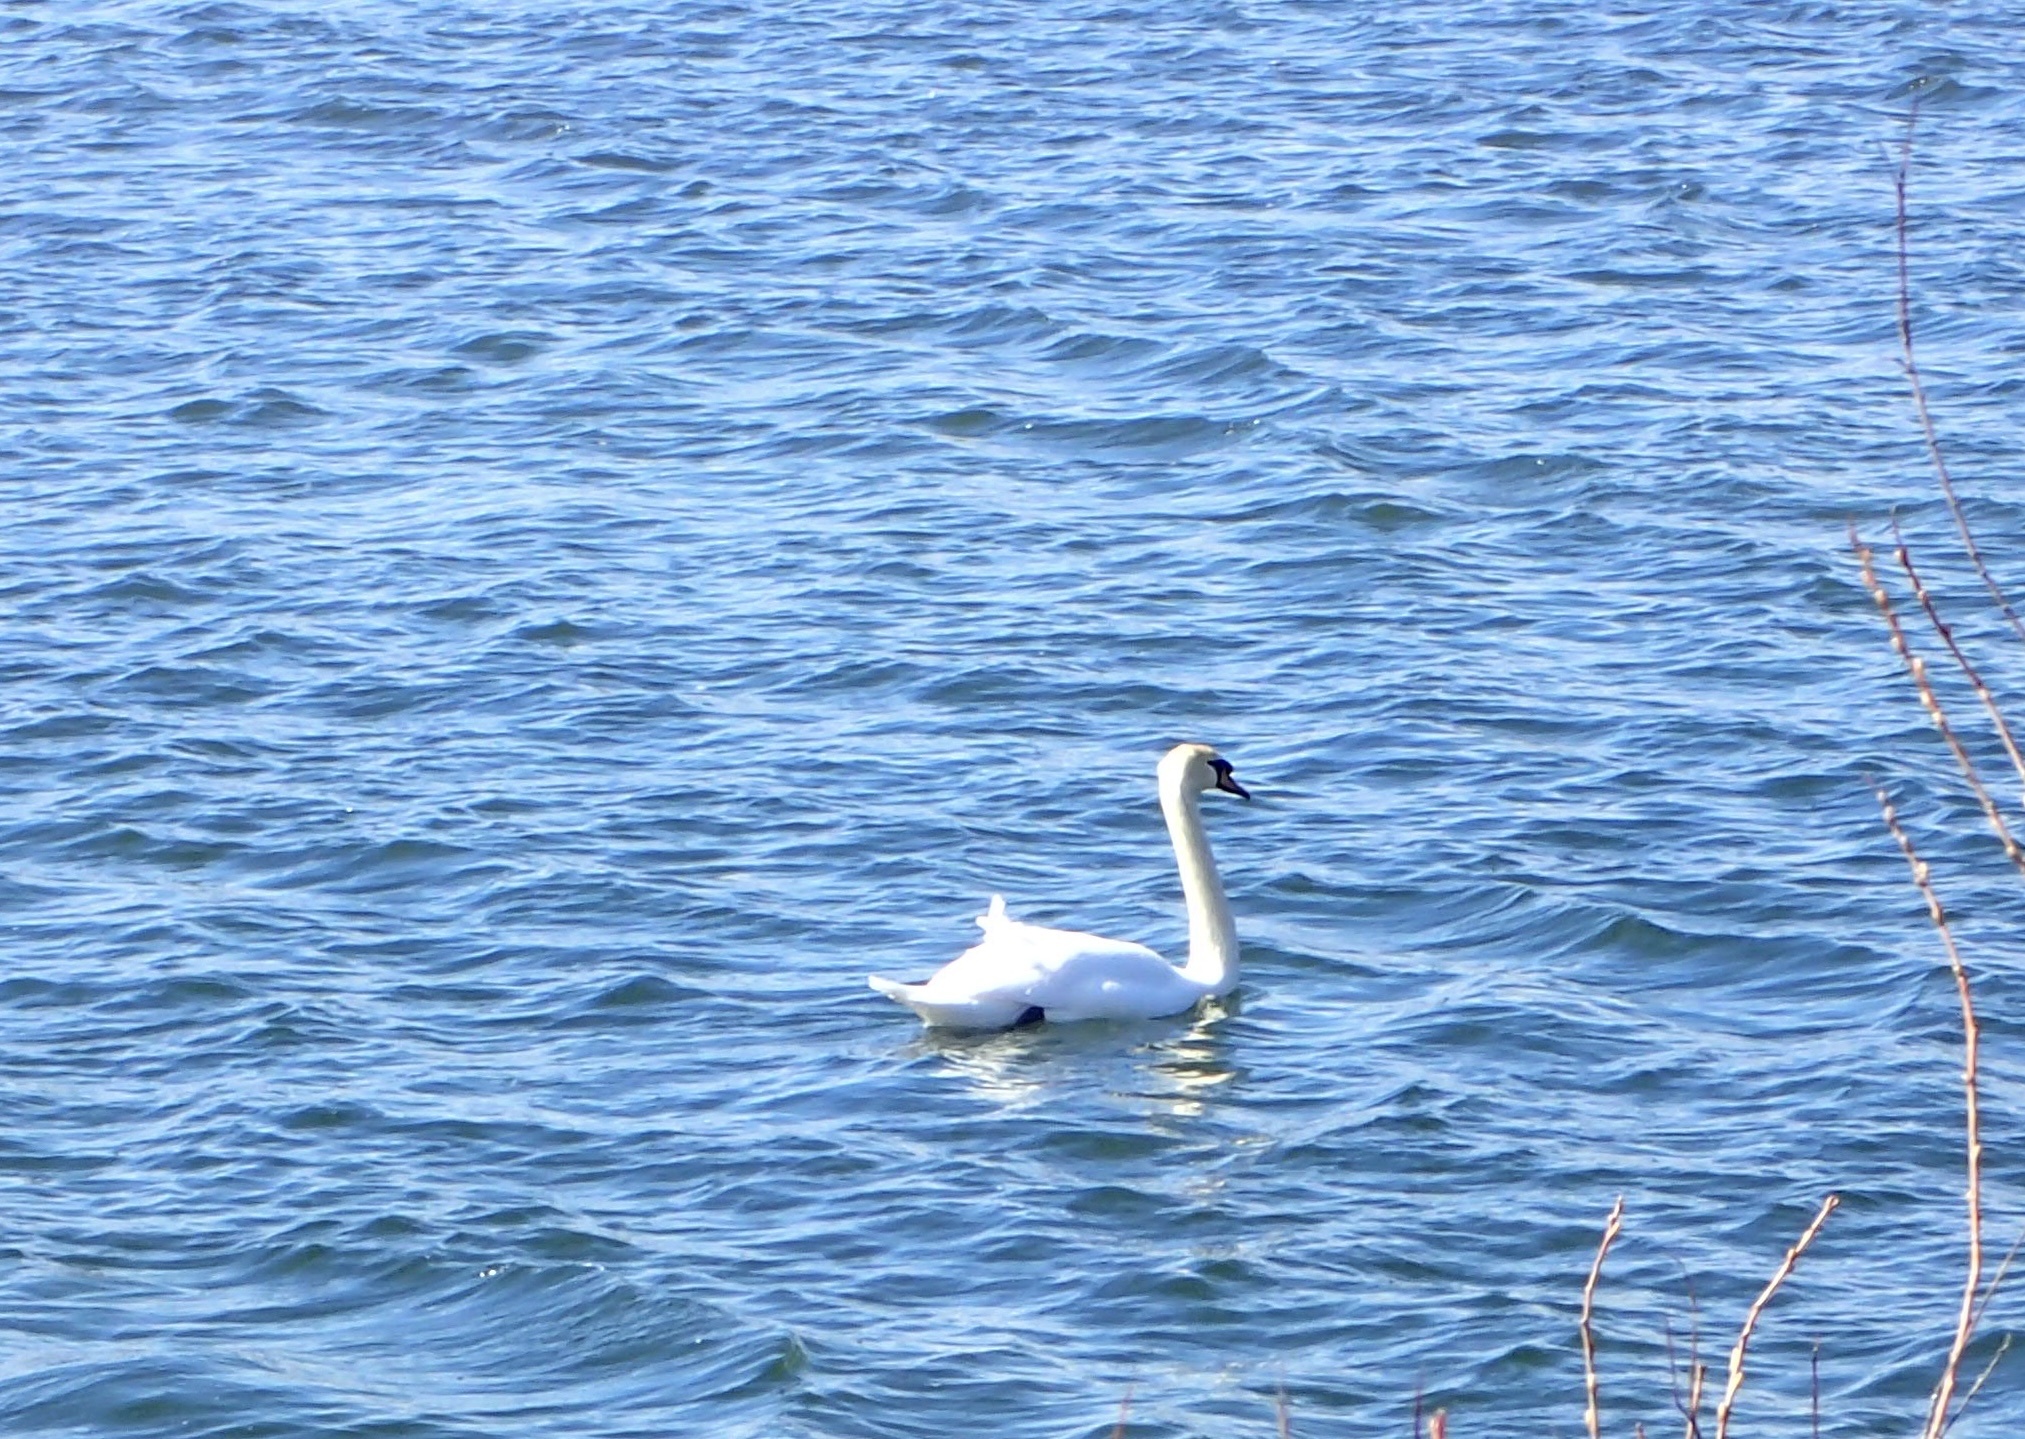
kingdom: Animalia
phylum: Chordata
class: Aves
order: Anseriformes
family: Anatidae
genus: Cygnus
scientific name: Cygnus olor
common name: Mute swan
